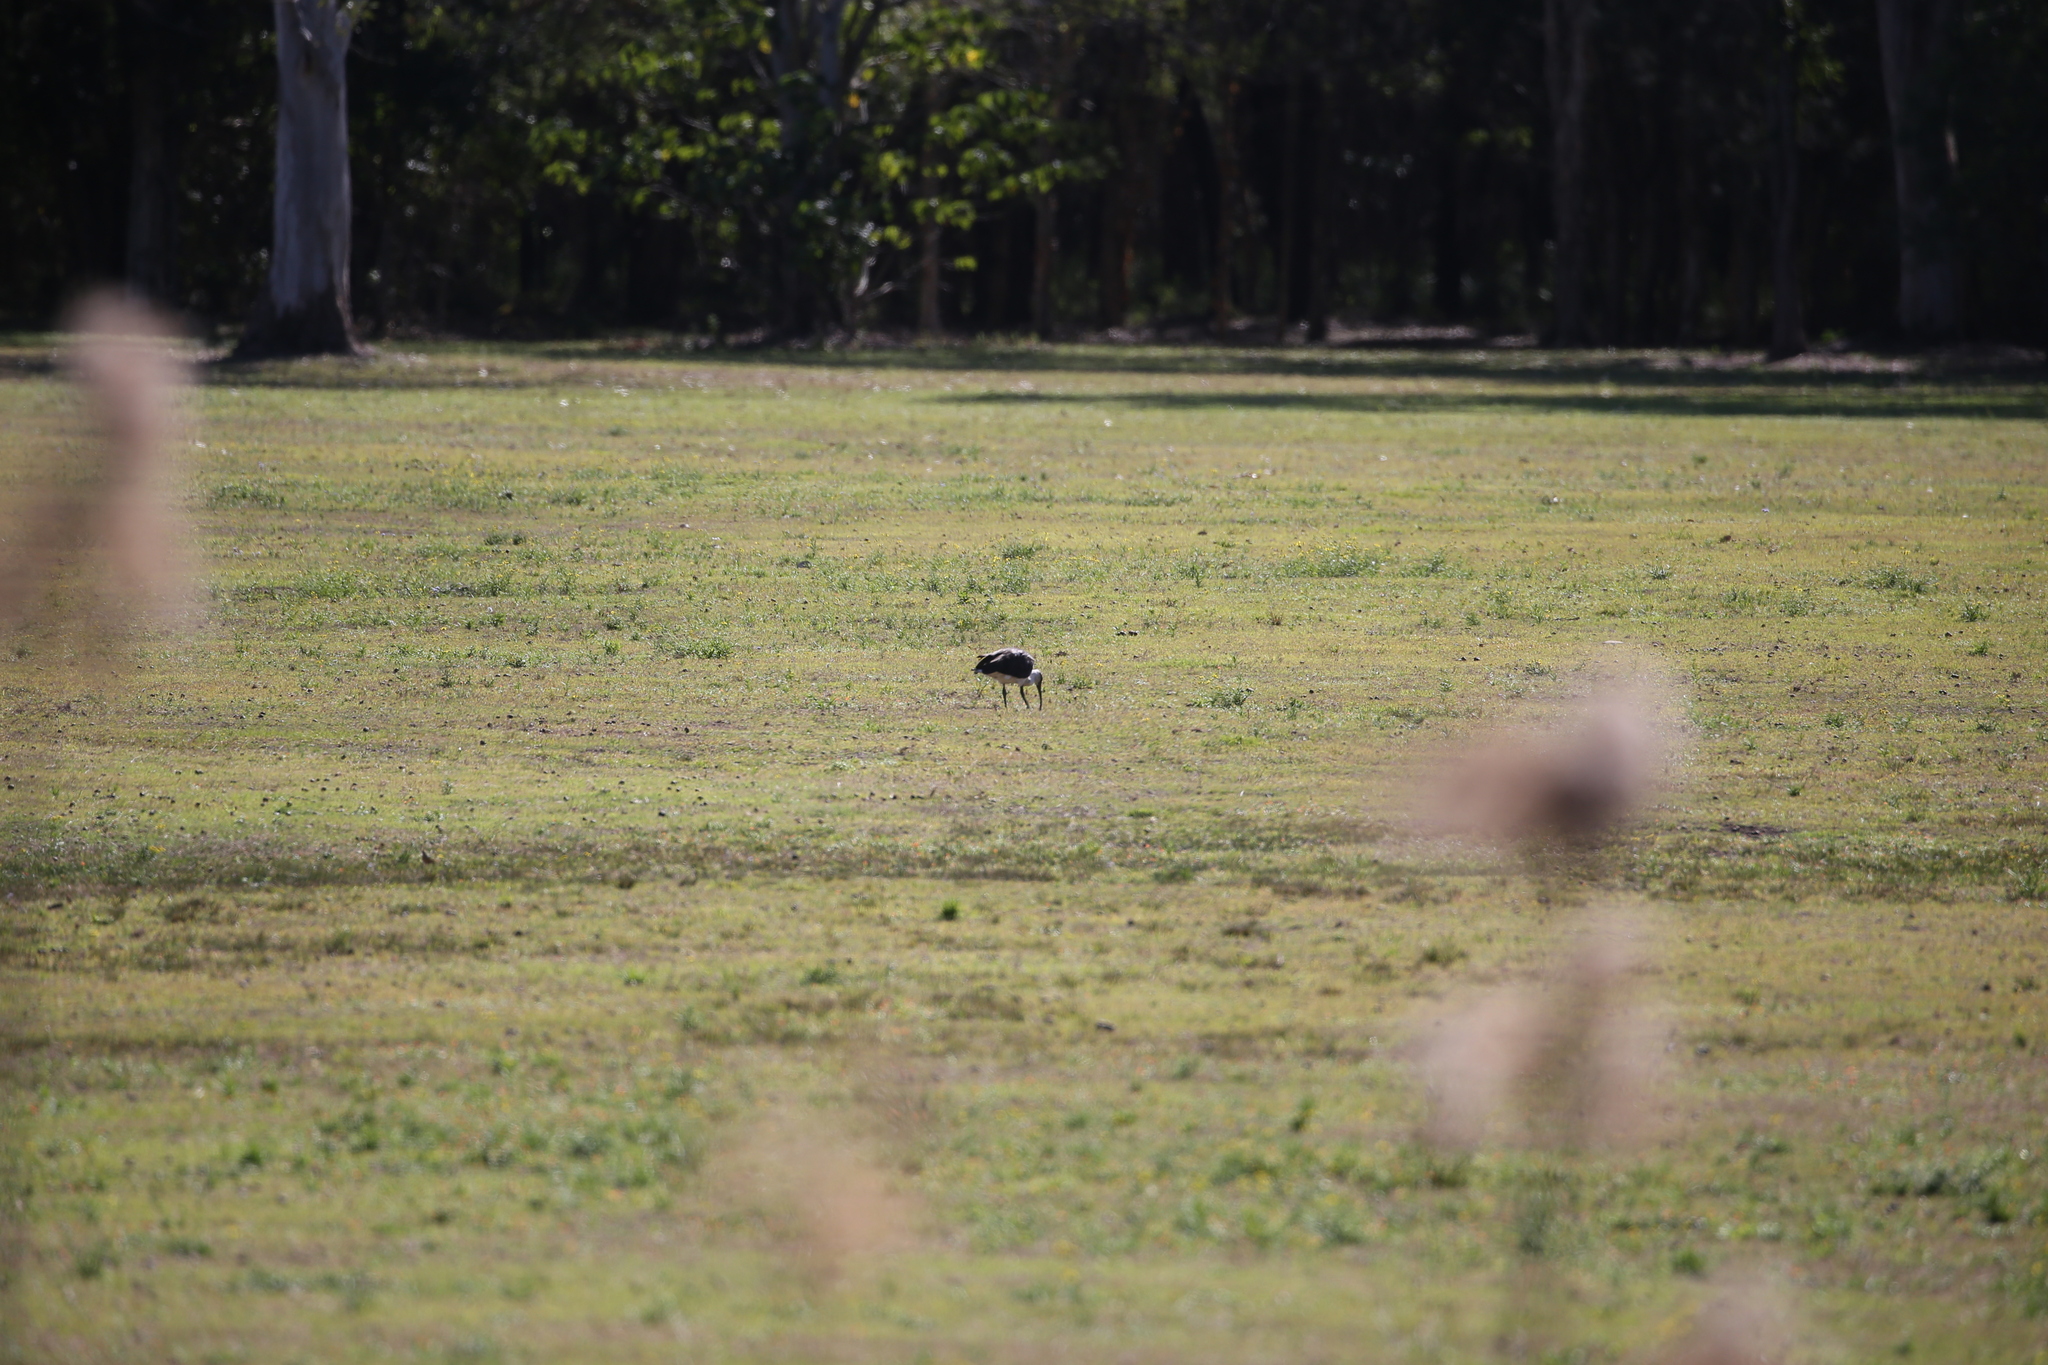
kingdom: Animalia
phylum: Chordata
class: Aves
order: Pelecaniformes
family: Threskiornithidae
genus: Threskiornis
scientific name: Threskiornis spinicollis
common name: Straw-necked ibis
